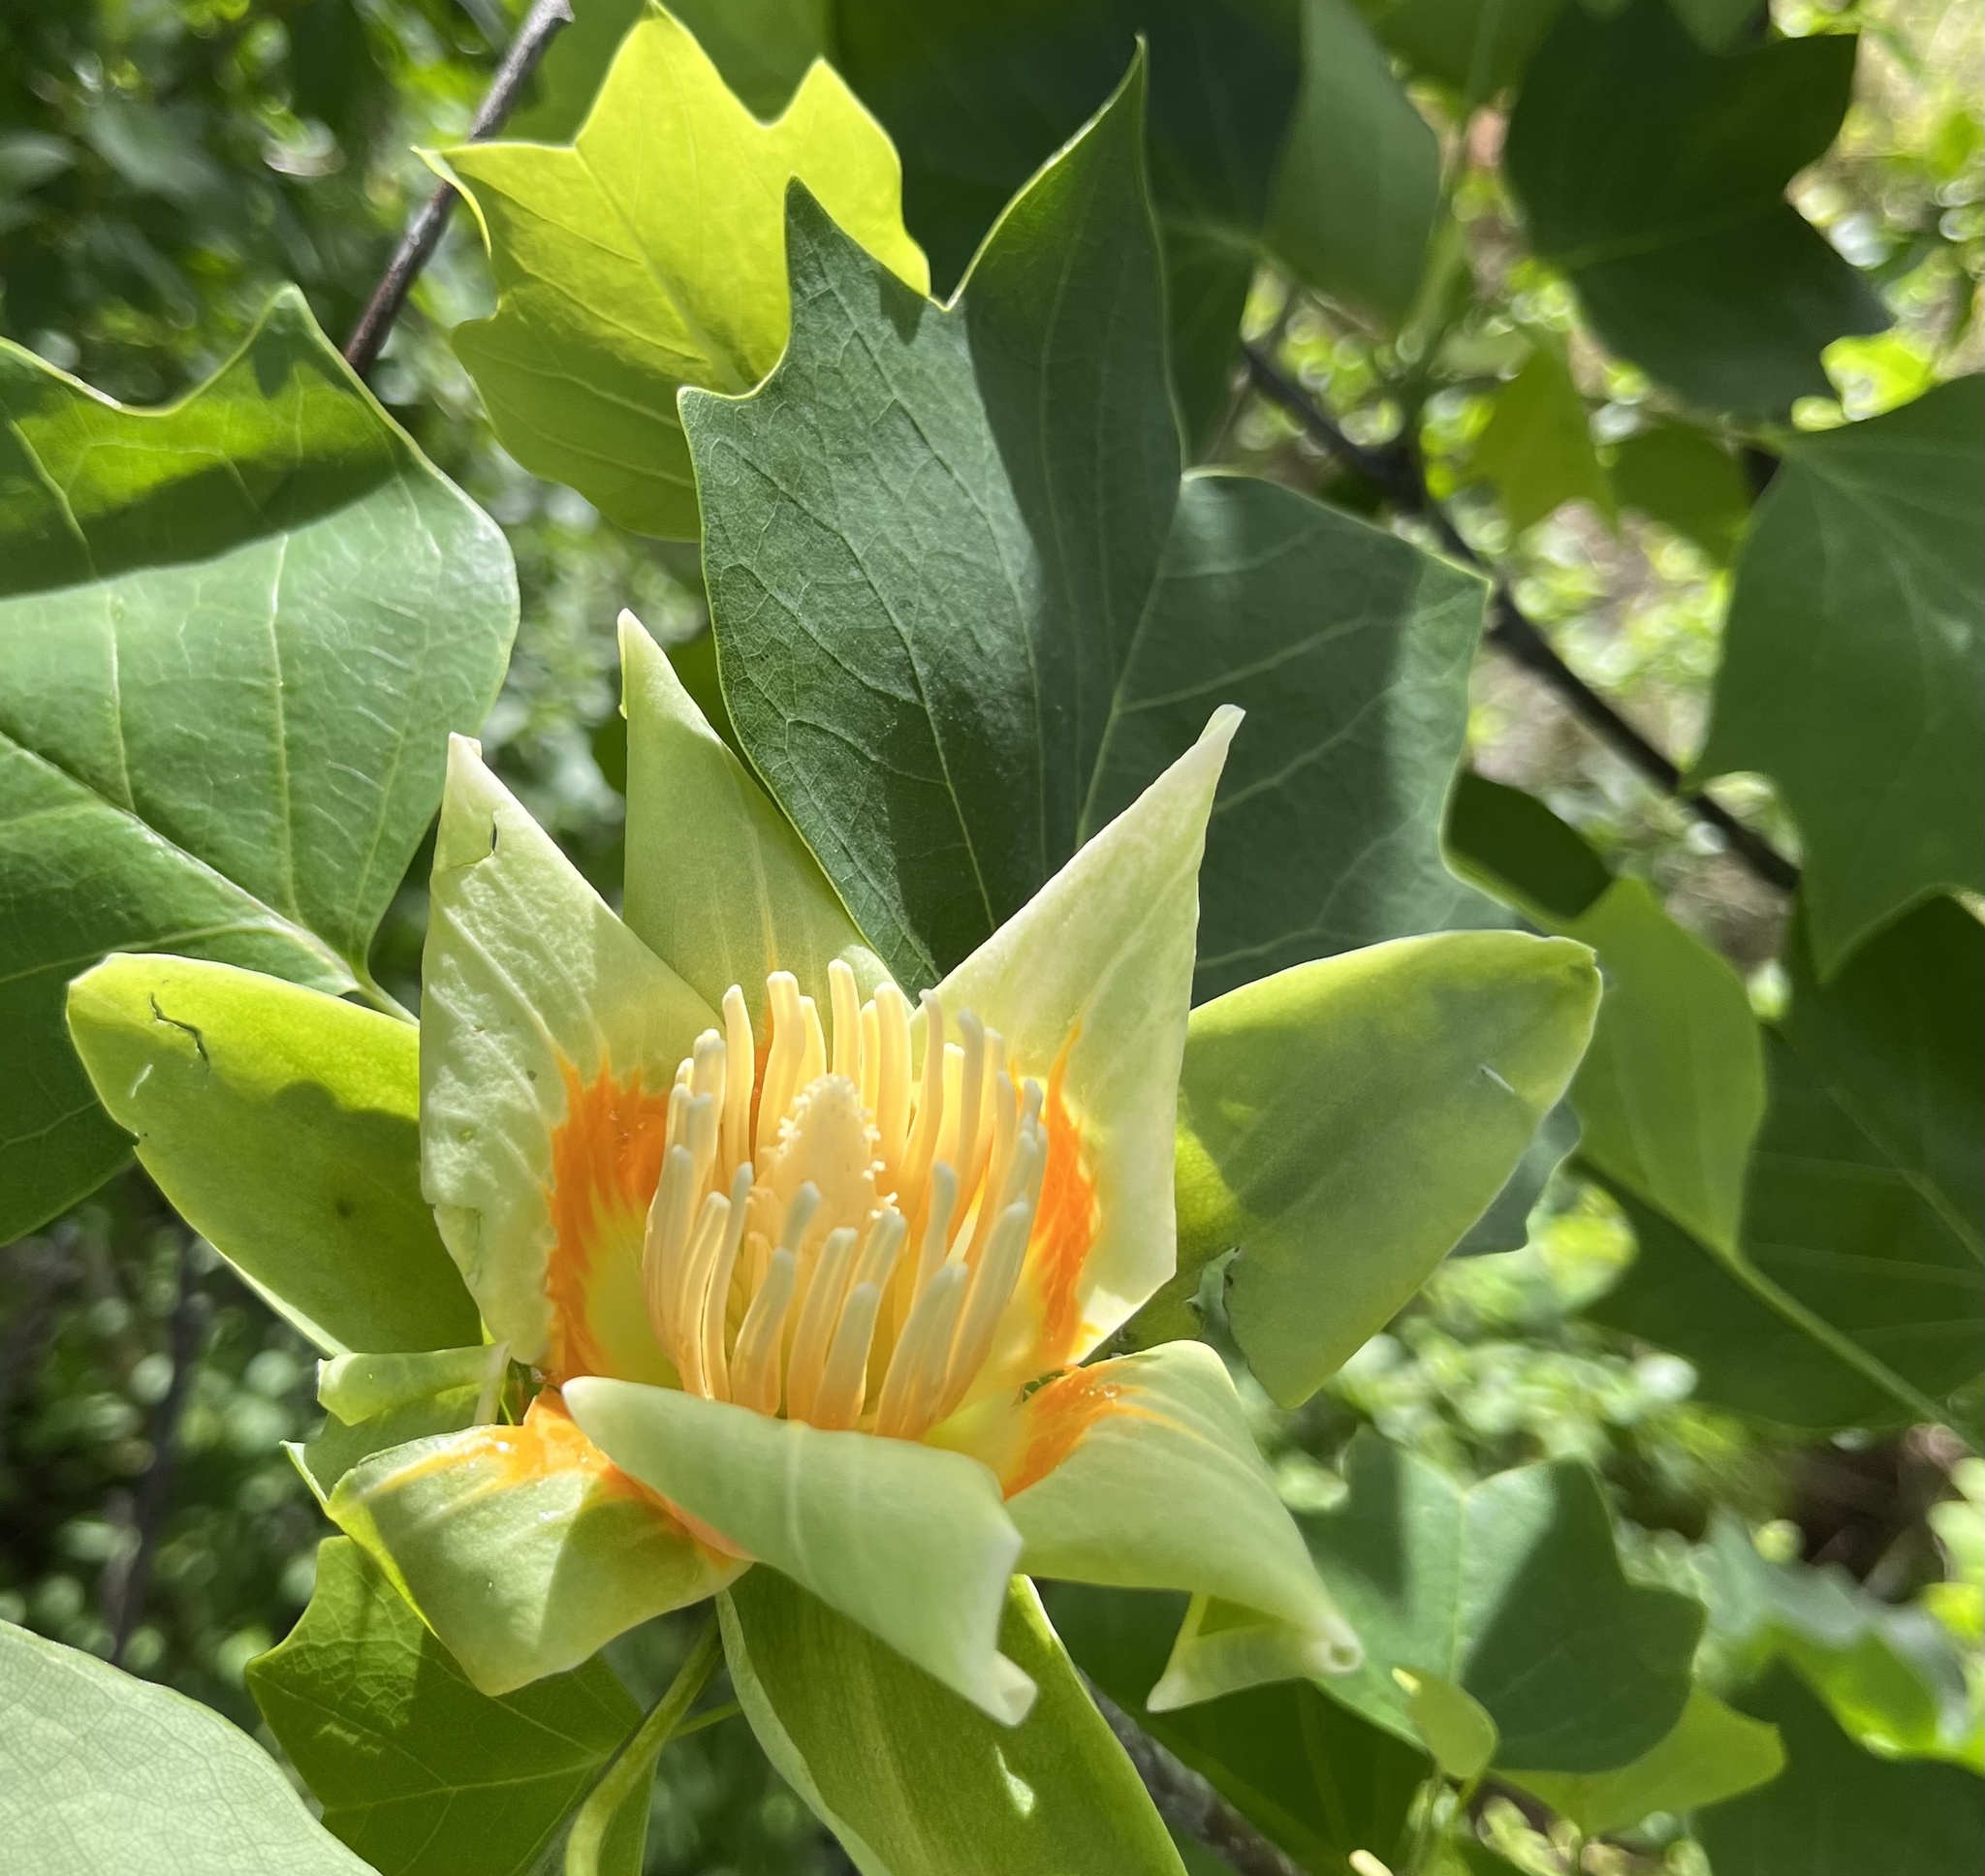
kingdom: Plantae
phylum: Tracheophyta
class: Magnoliopsida
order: Magnoliales
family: Magnoliaceae
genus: Liriodendron
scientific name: Liriodendron tulipifera
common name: Tulip tree
